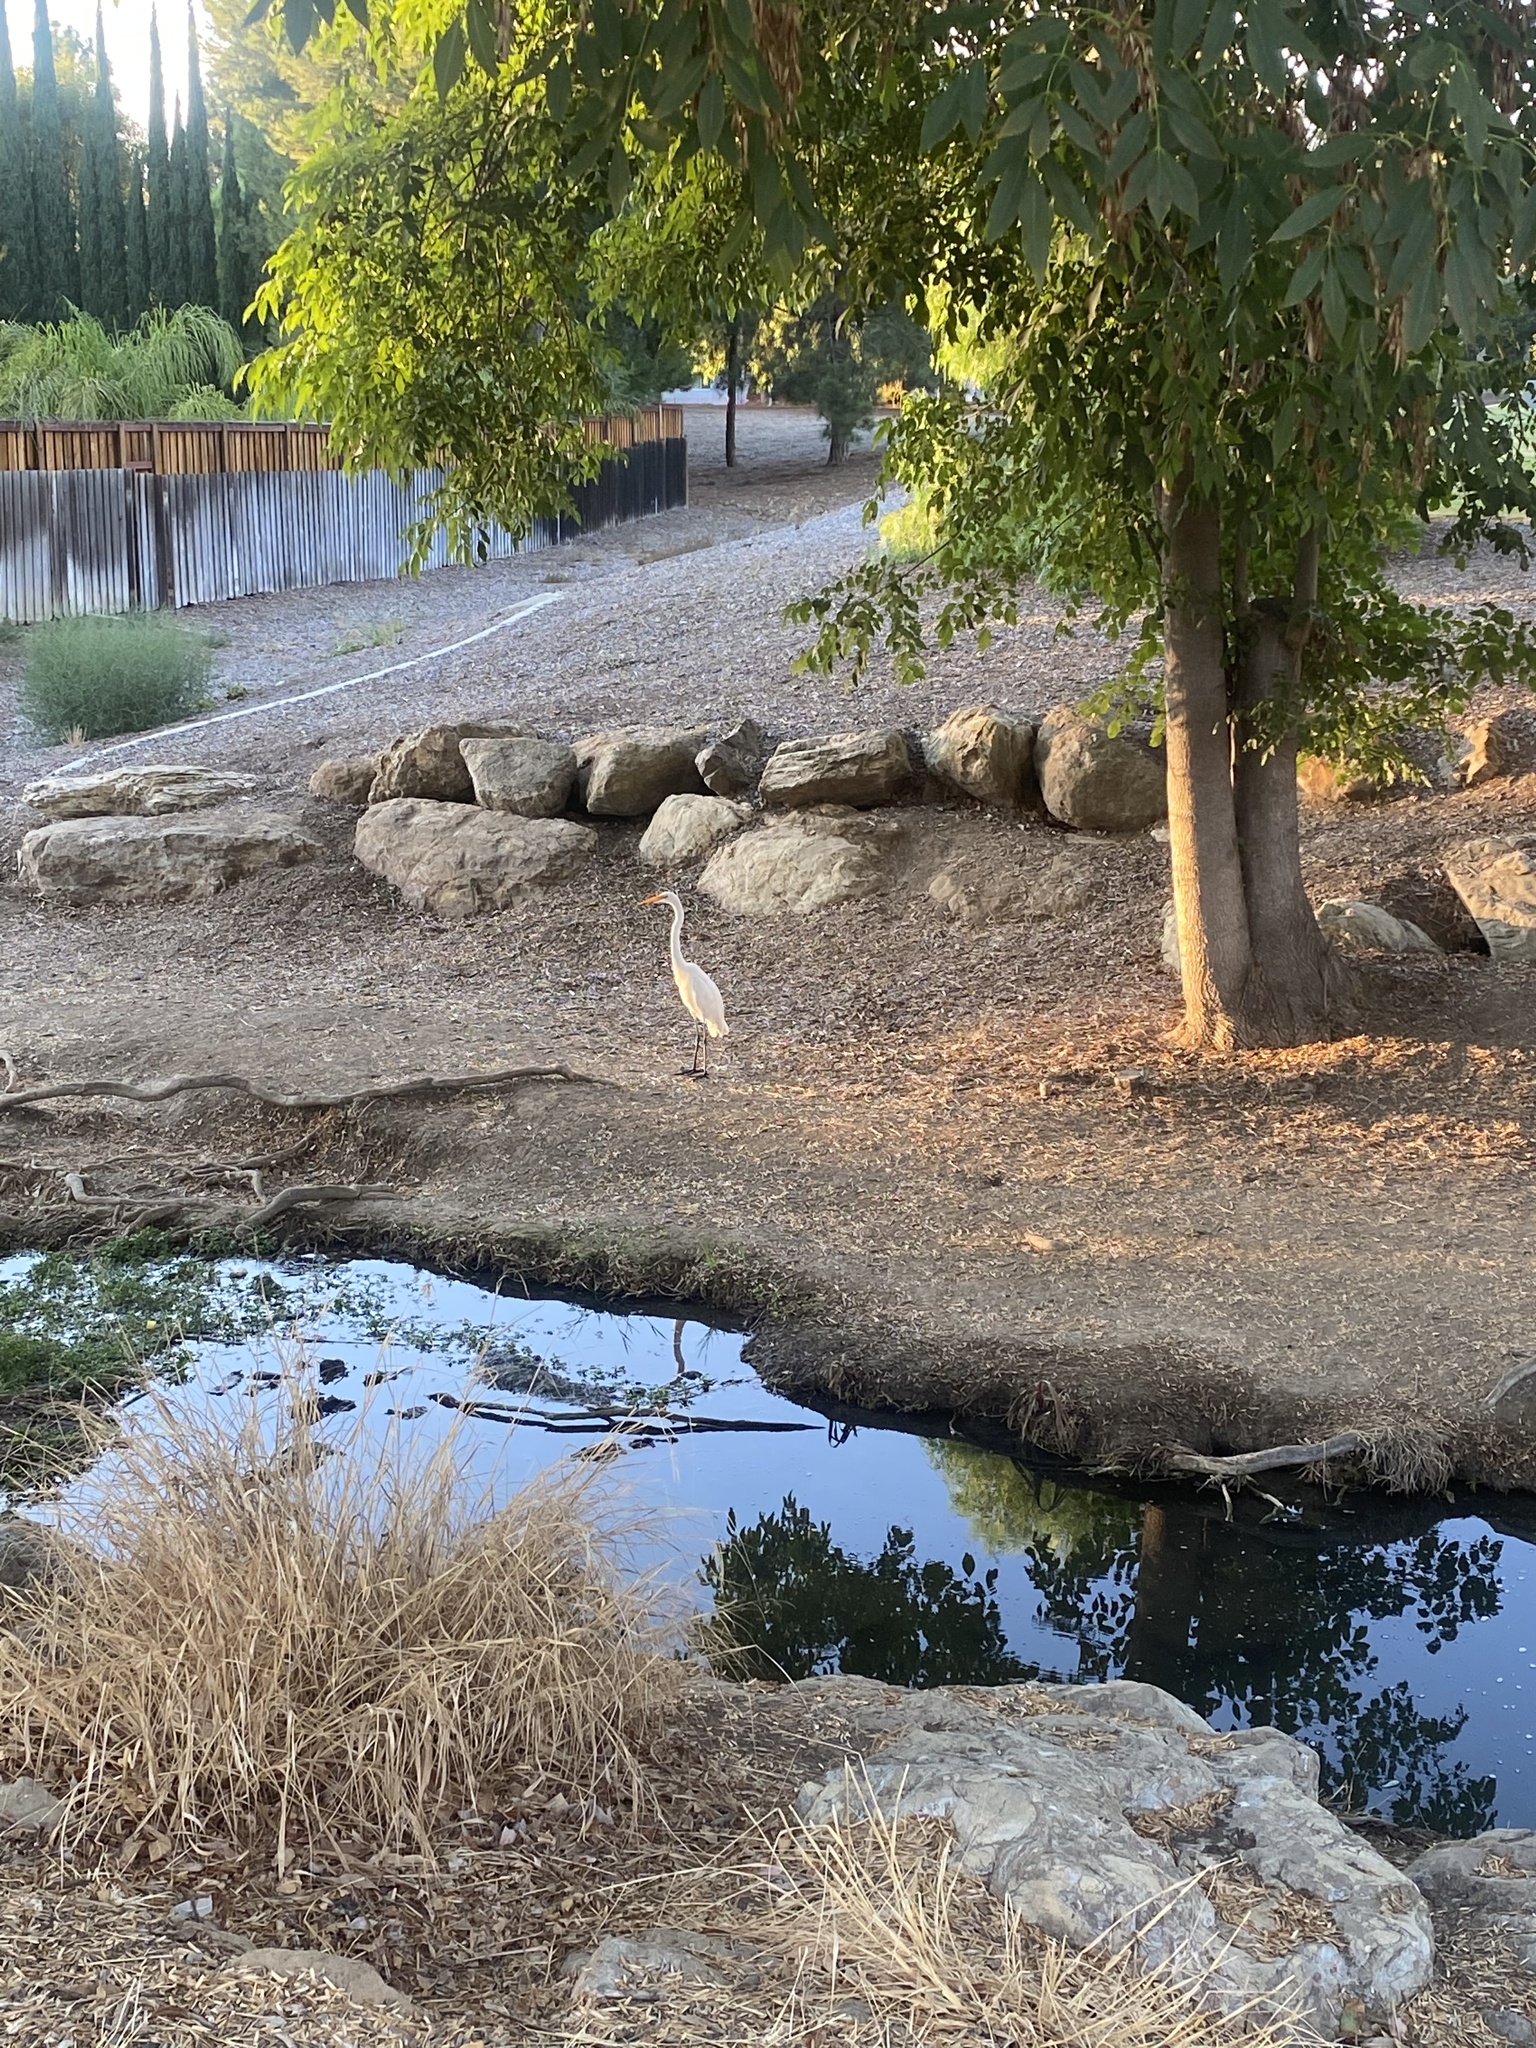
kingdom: Animalia
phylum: Chordata
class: Aves
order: Pelecaniformes
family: Ardeidae
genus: Ardea
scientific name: Ardea alba
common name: Great egret
